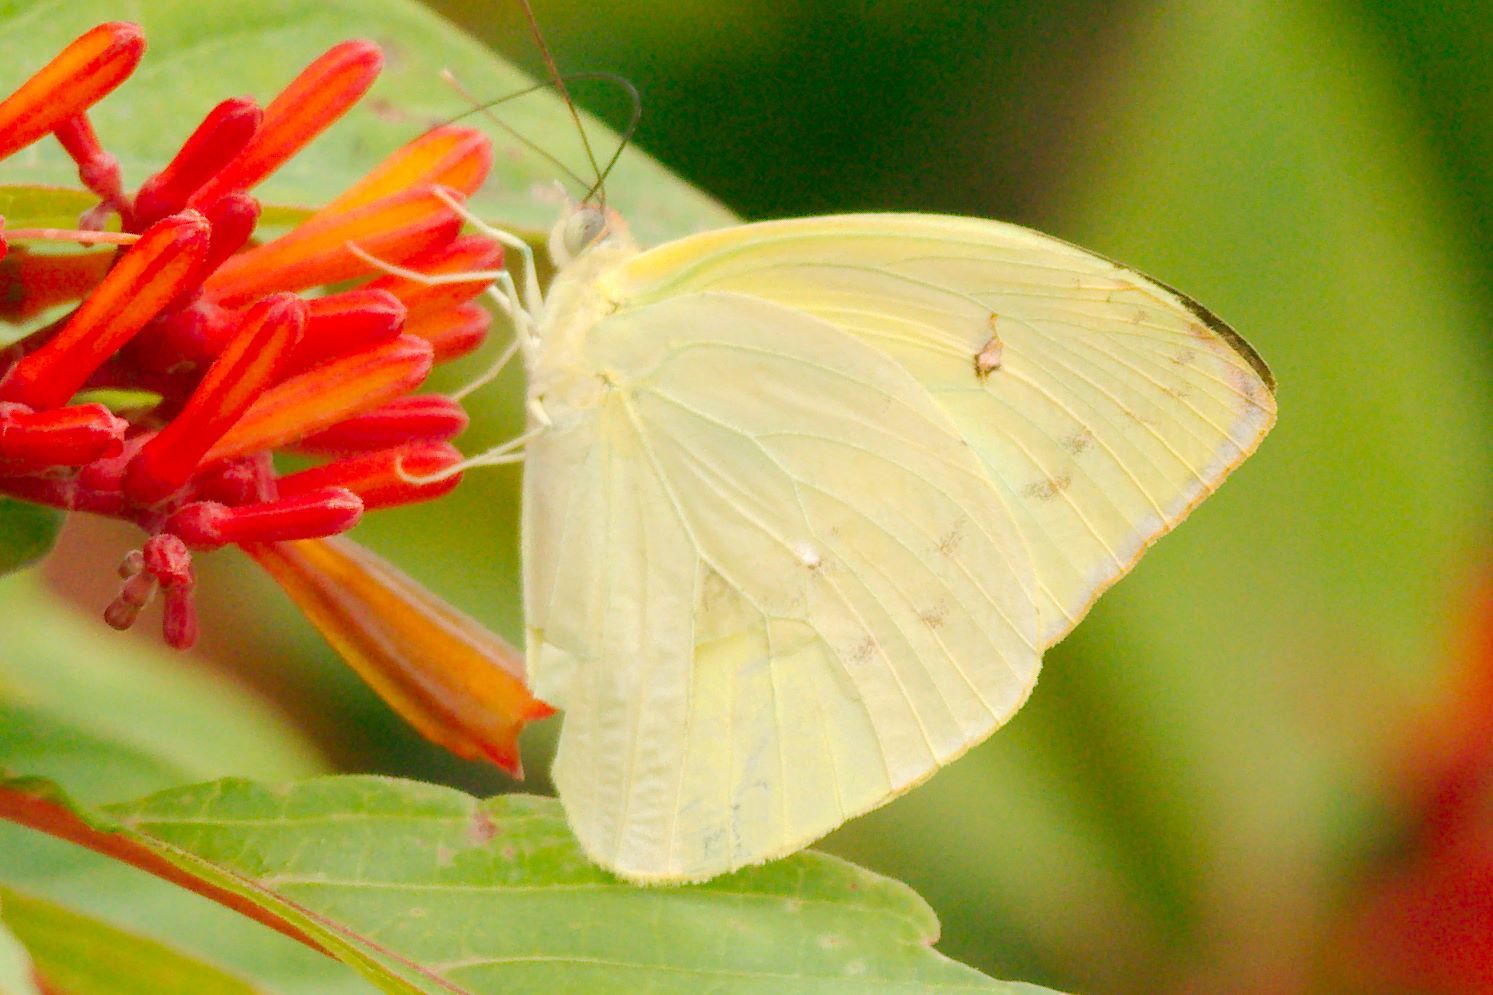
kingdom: Animalia
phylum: Arthropoda
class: Insecta
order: Lepidoptera
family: Pieridae
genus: Aphrissa
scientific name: Aphrissa statira
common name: Statira sulphur
